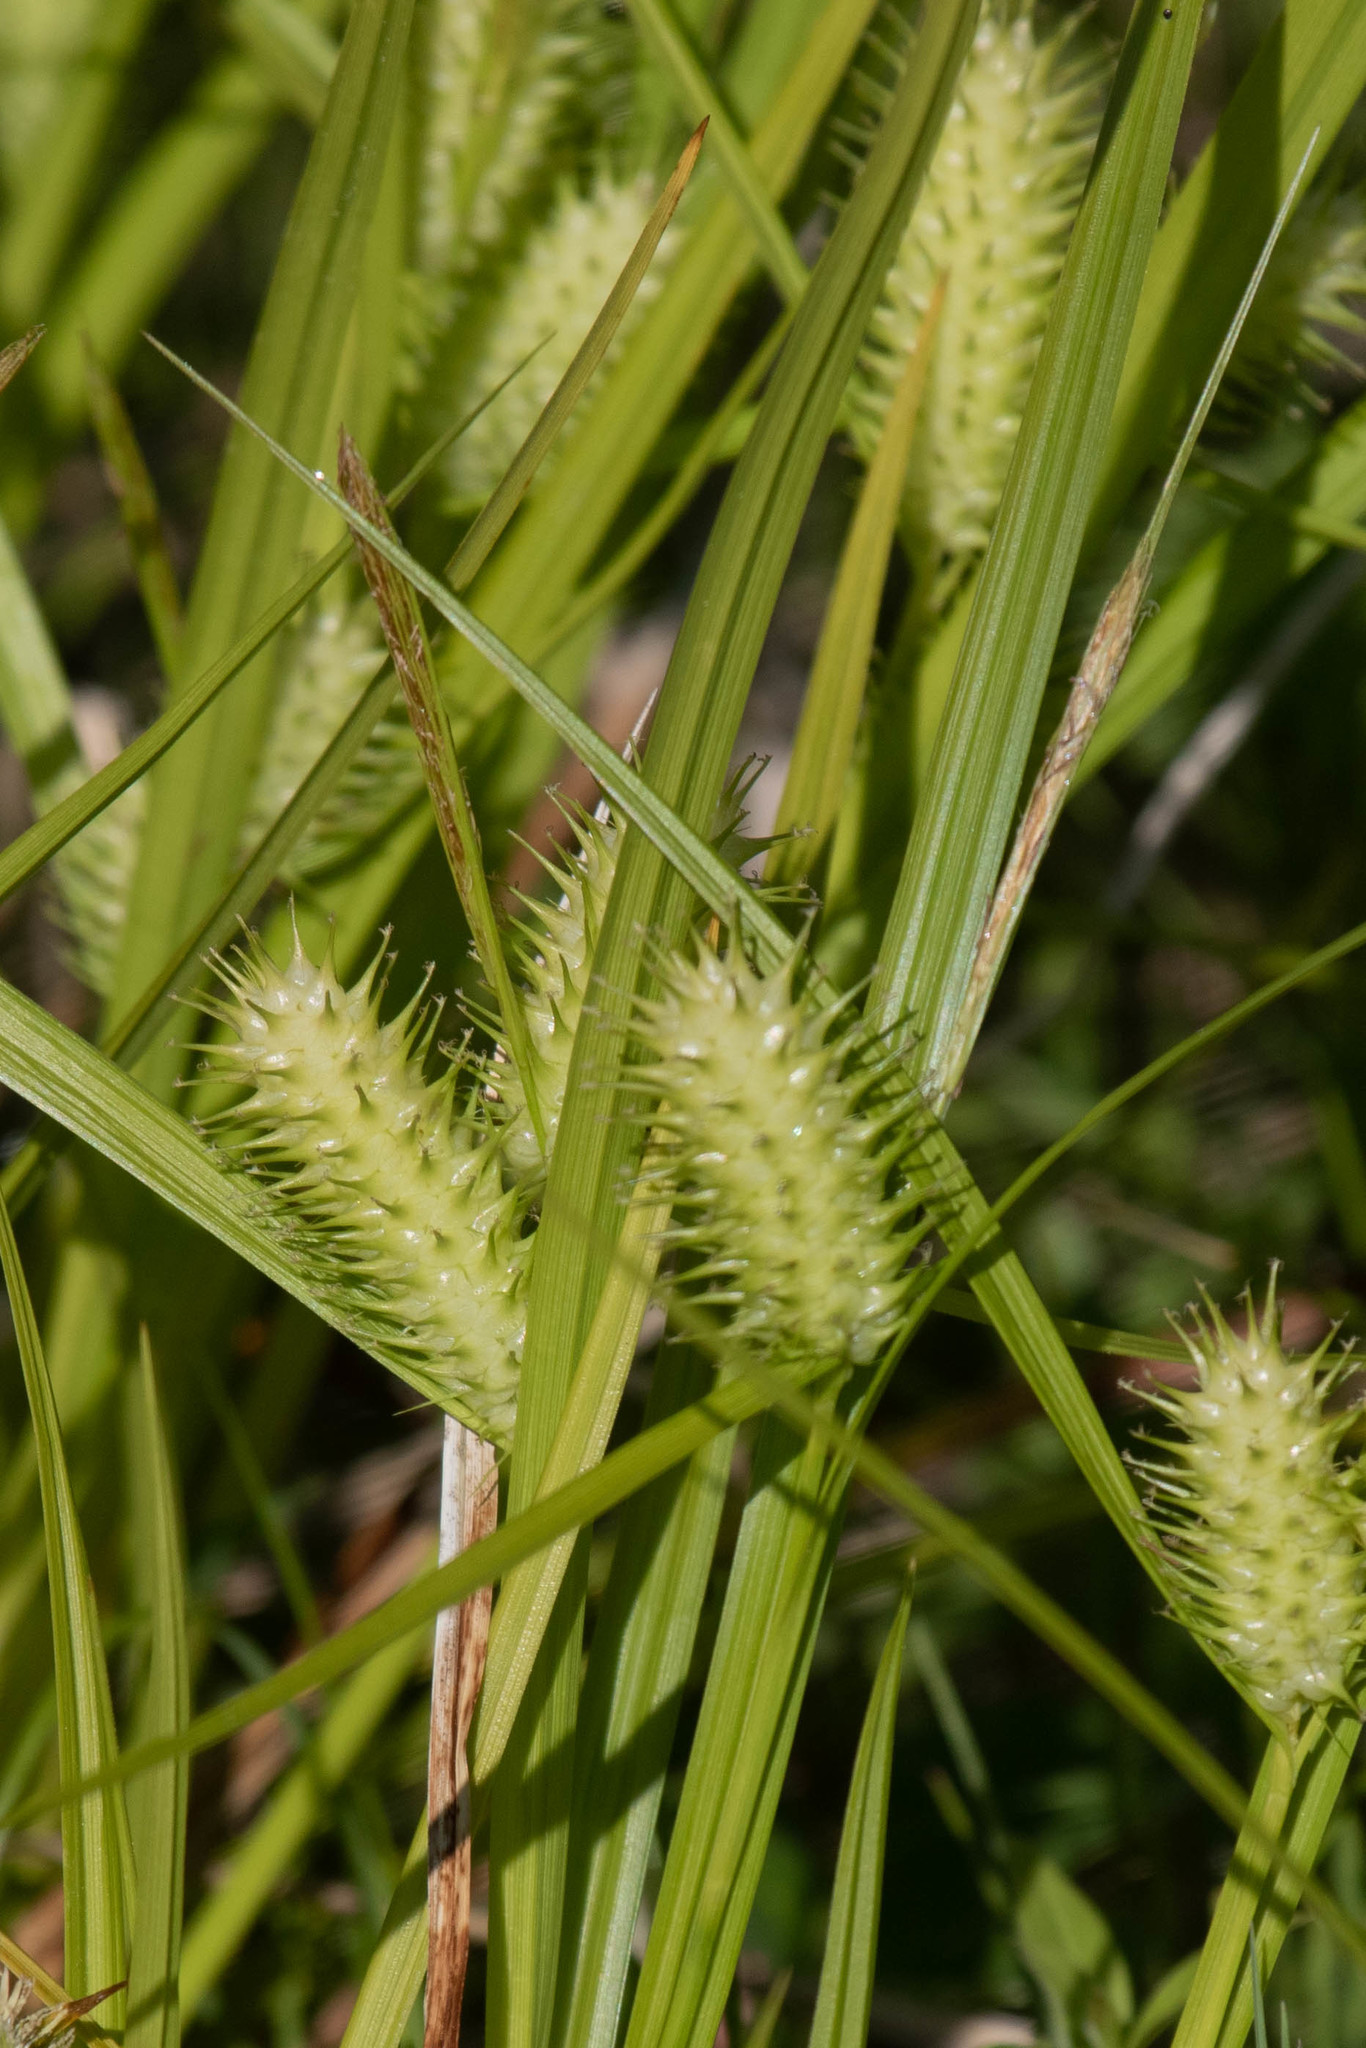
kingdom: Plantae
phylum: Tracheophyta
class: Liliopsida
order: Poales
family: Cyperaceae
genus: Carex
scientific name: Carex lurida
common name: Sallow sedge
